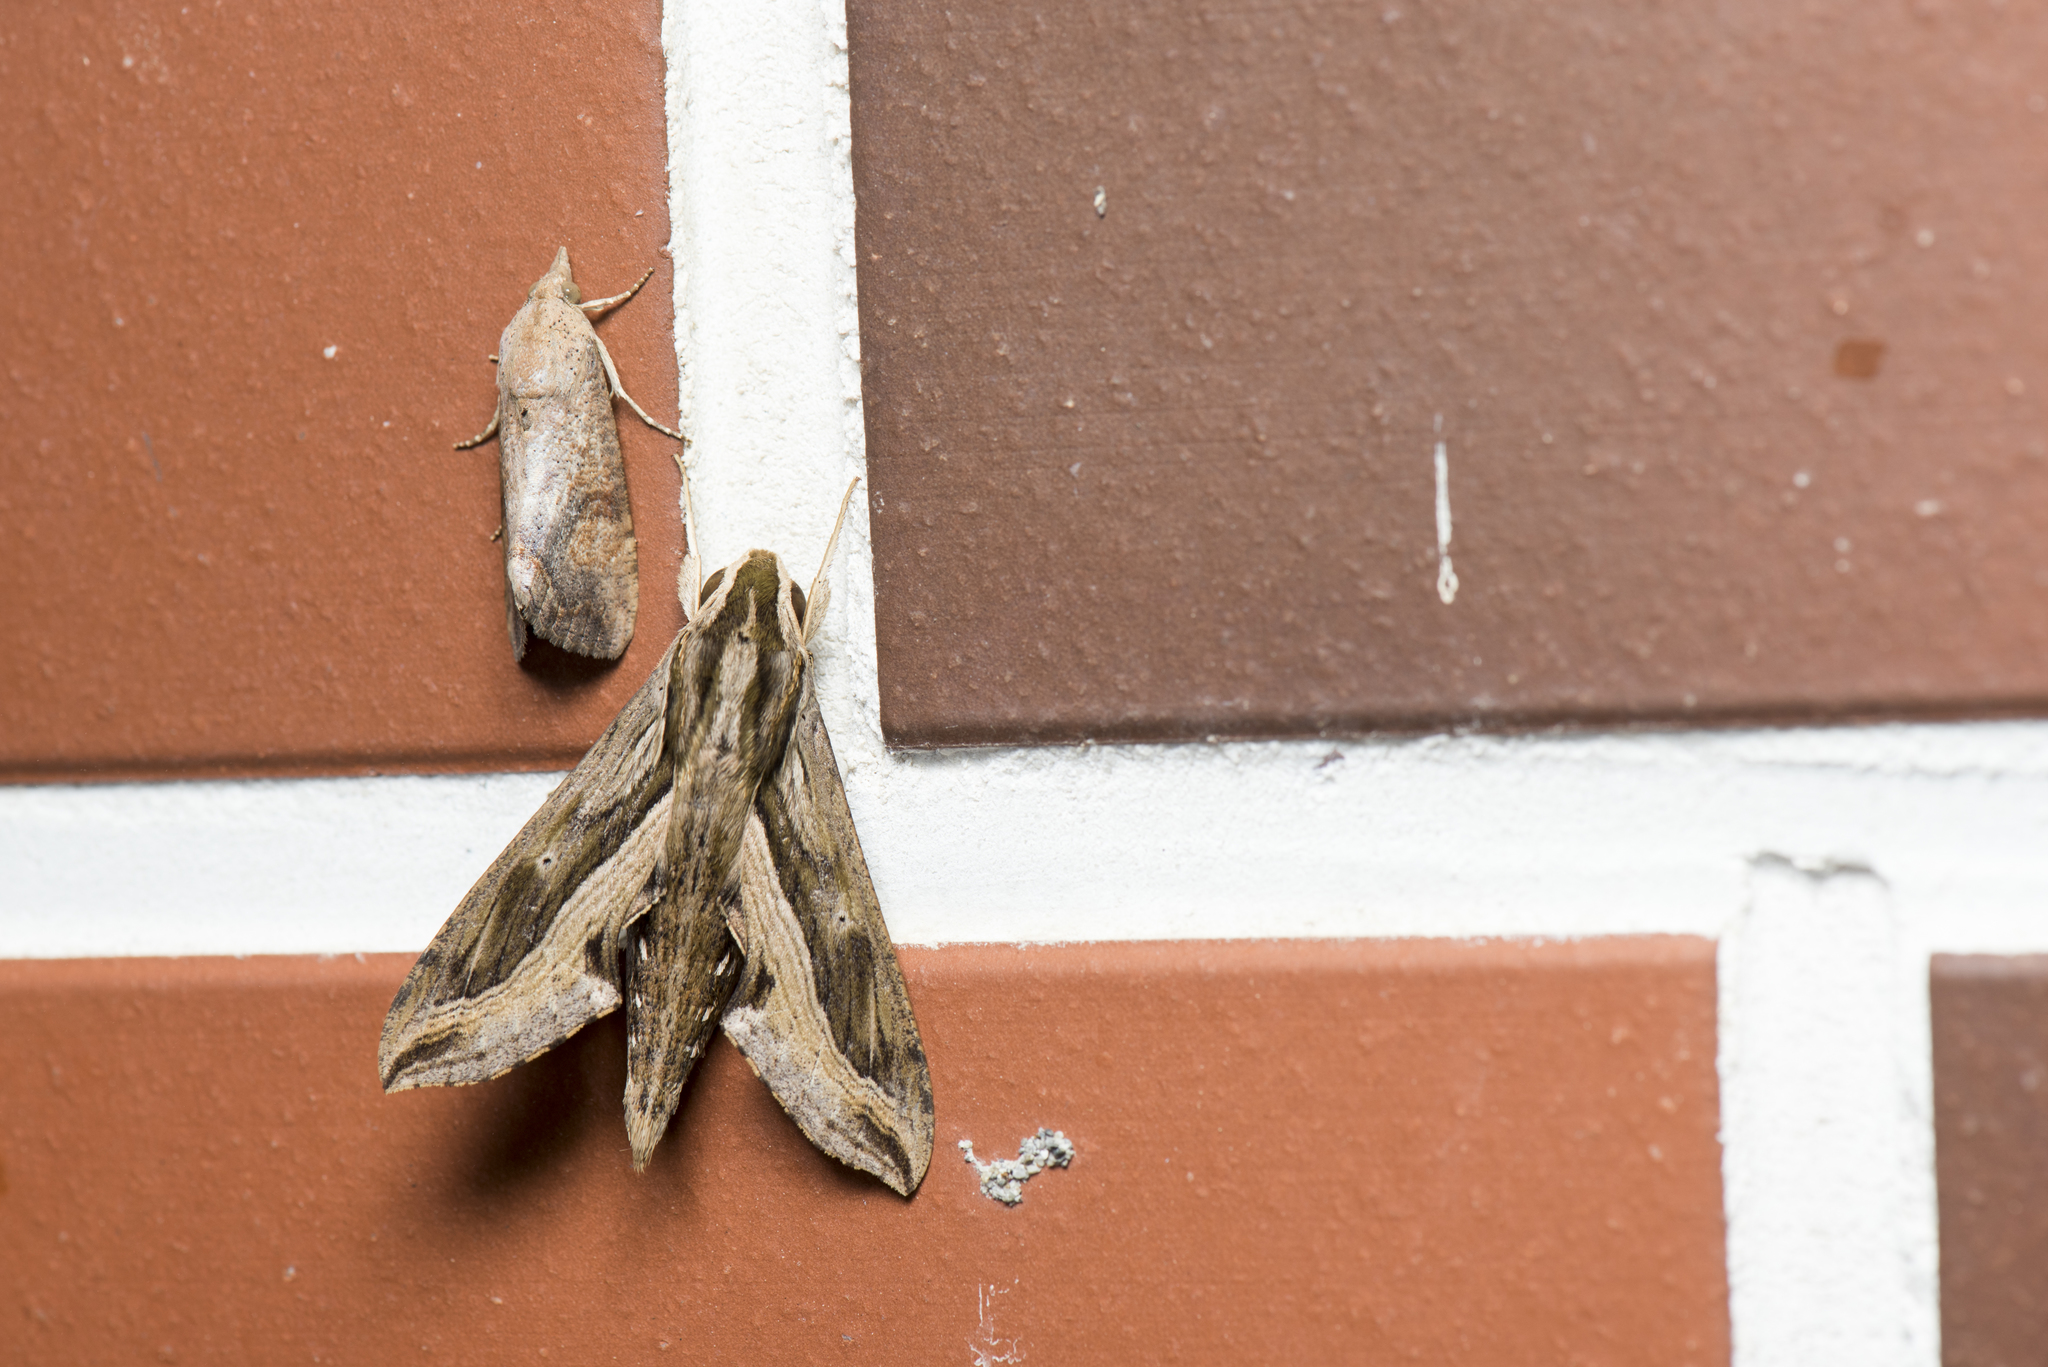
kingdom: Animalia
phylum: Arthropoda
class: Insecta
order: Lepidoptera
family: Sphingidae
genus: Hippotion
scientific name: Hippotion velox
